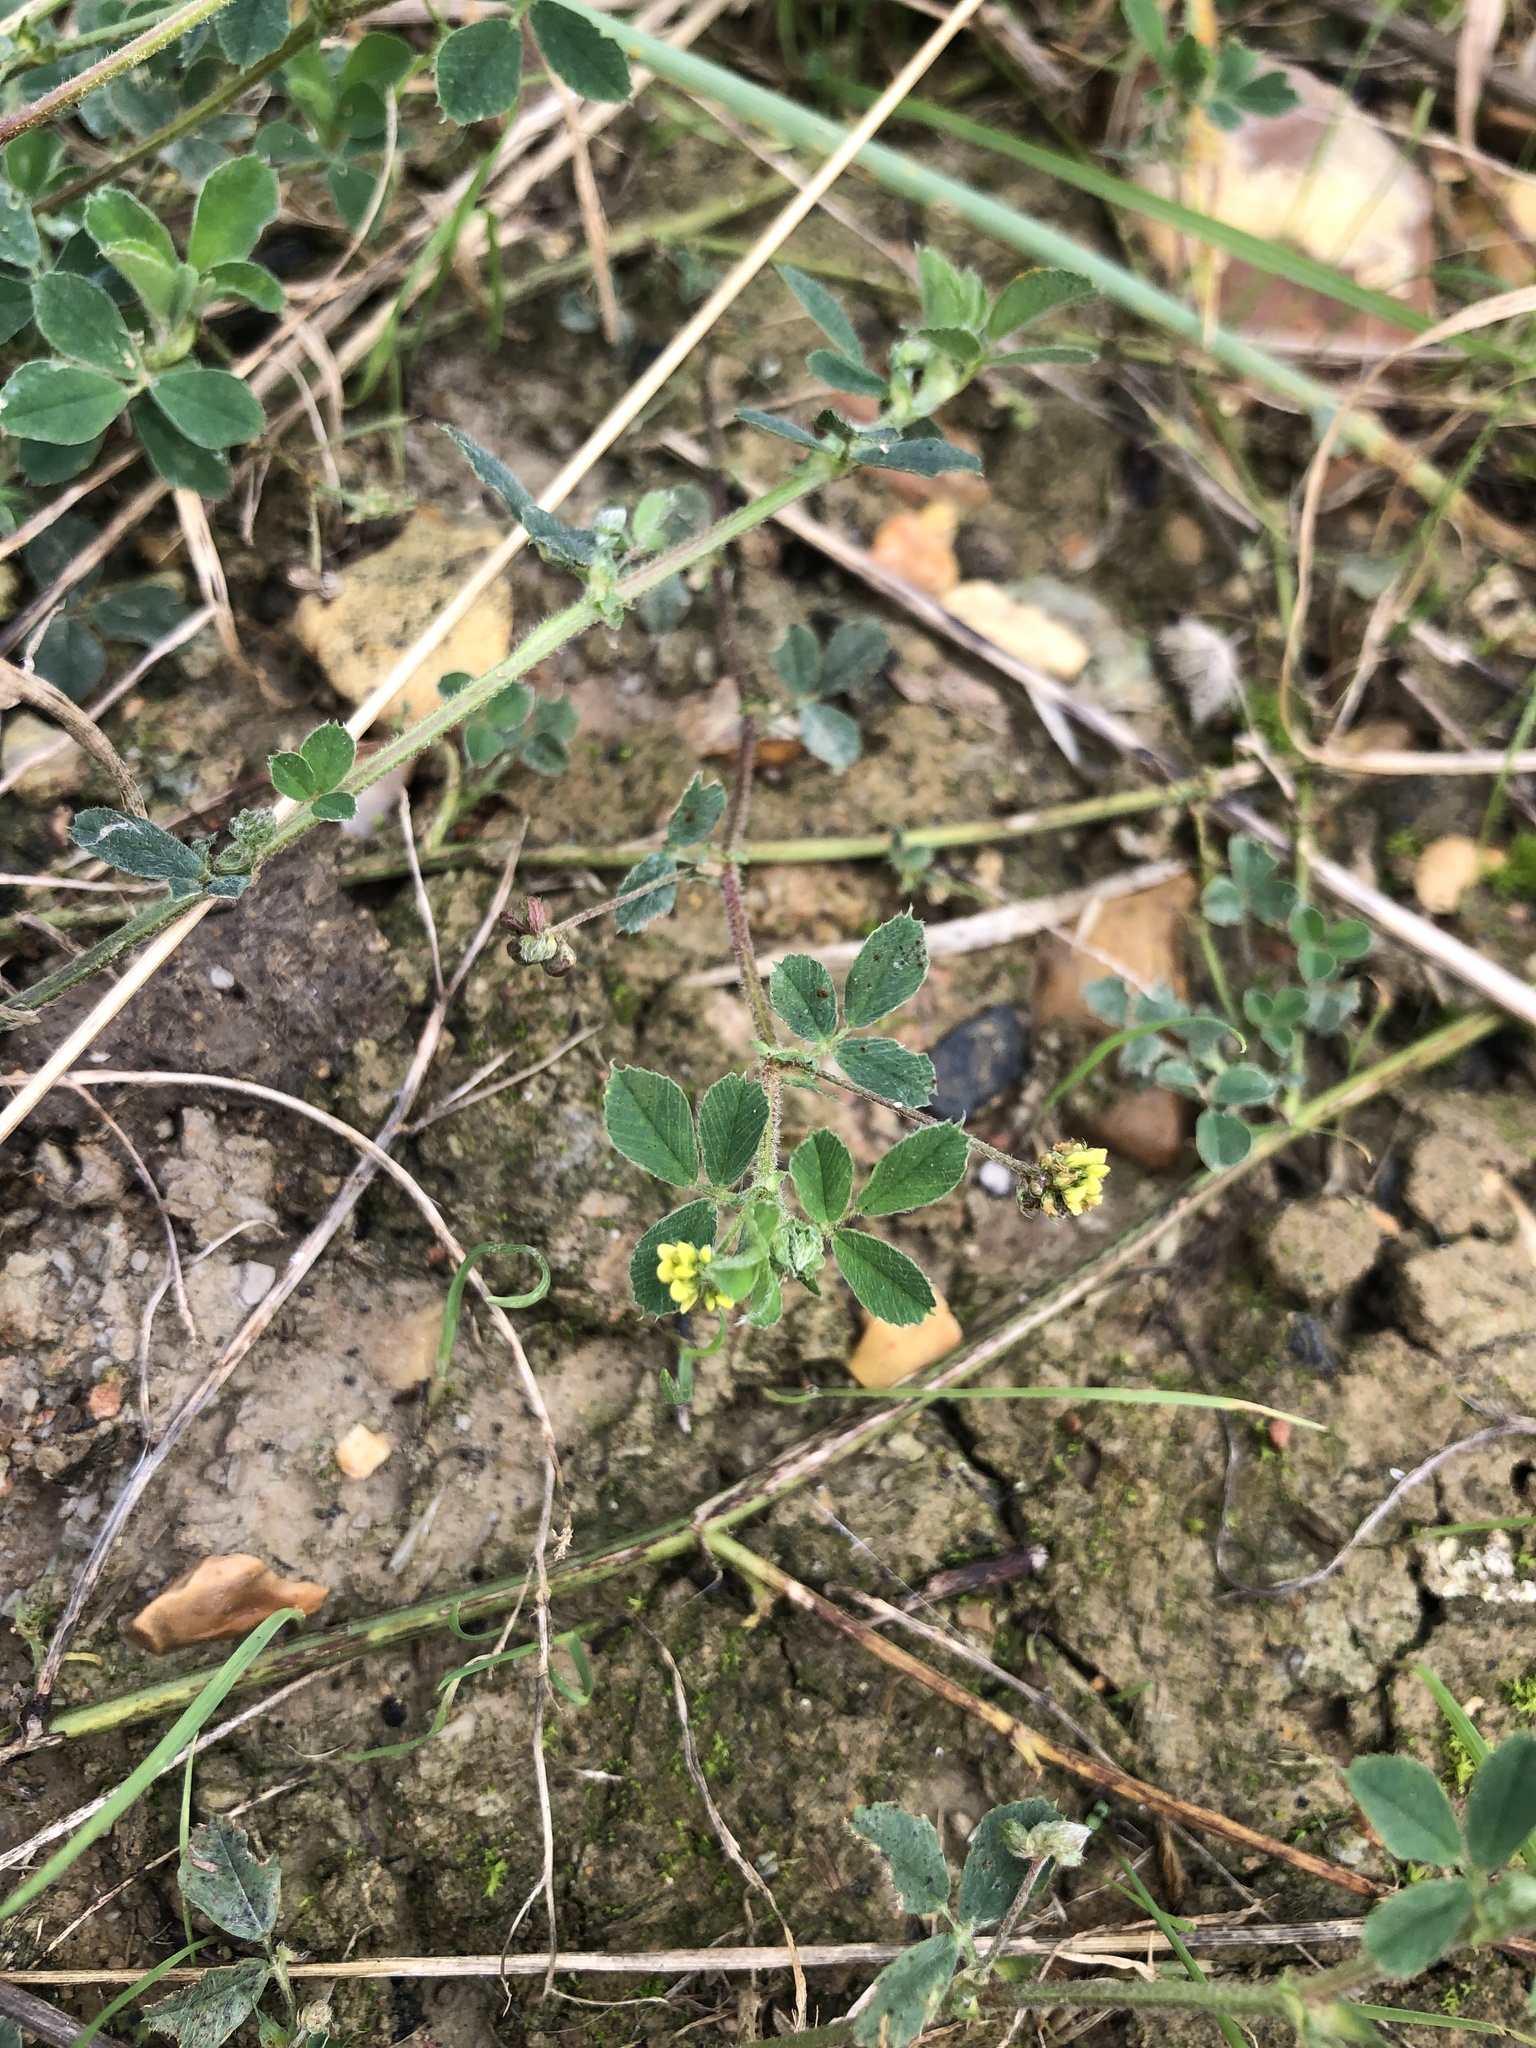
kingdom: Plantae
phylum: Tracheophyta
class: Magnoliopsida
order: Fabales
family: Fabaceae
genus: Medicago
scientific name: Medicago lupulina
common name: Black medick
